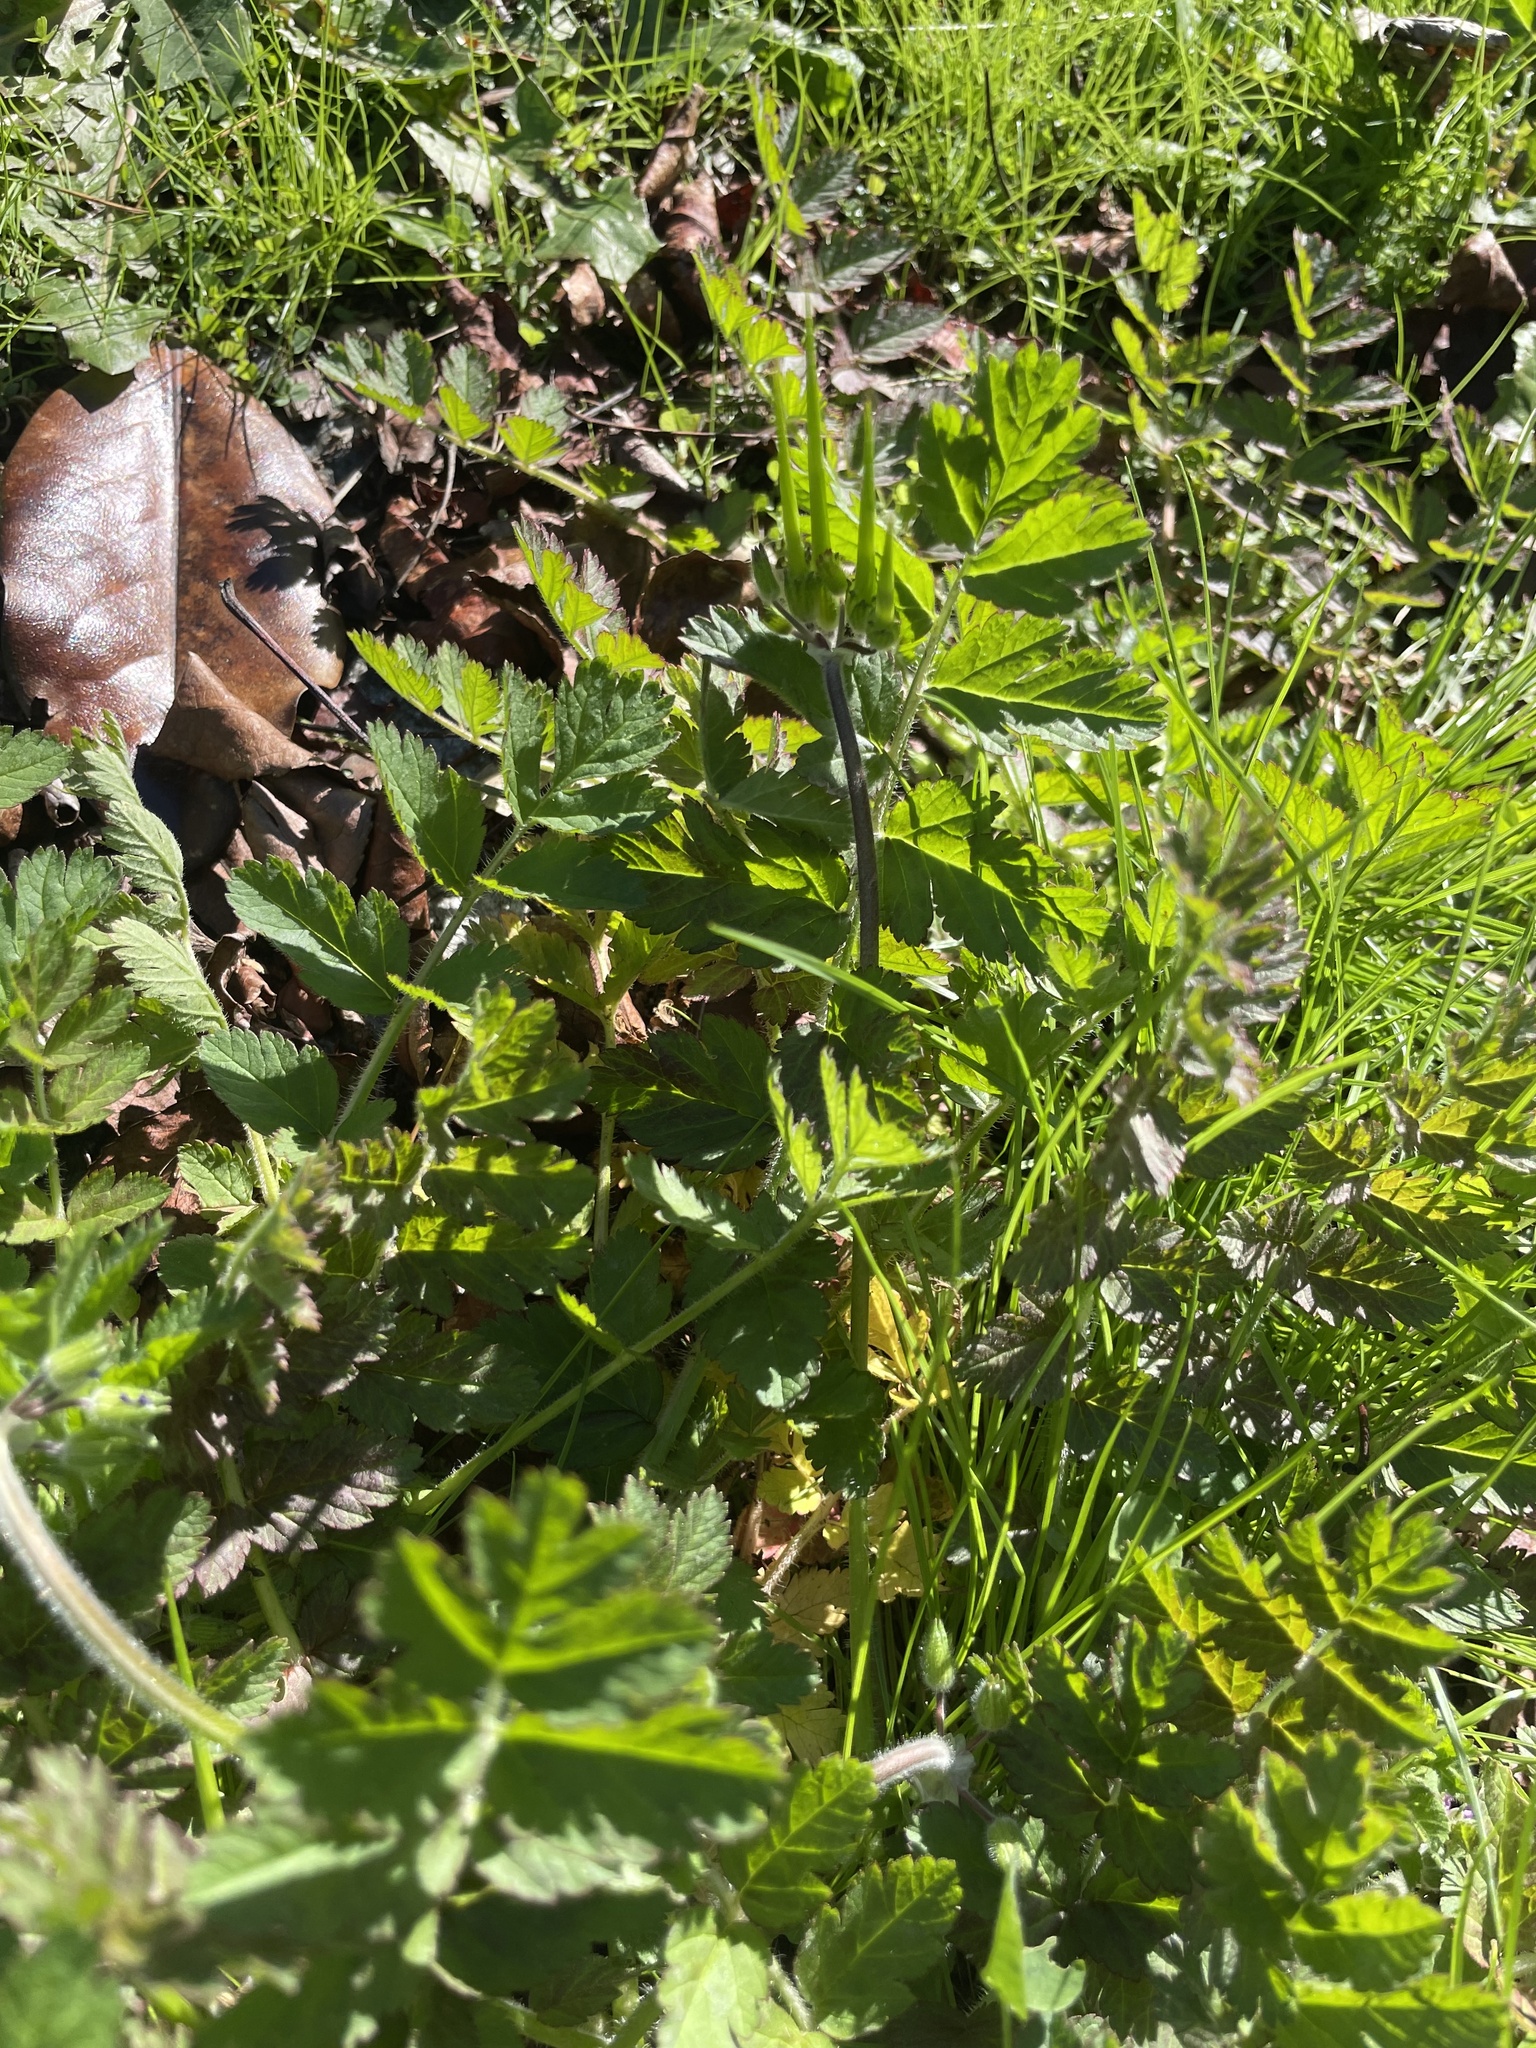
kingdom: Plantae
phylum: Tracheophyta
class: Magnoliopsida
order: Geraniales
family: Geraniaceae
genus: Erodium
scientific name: Erodium moschatum
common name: Musk stork's-bill
